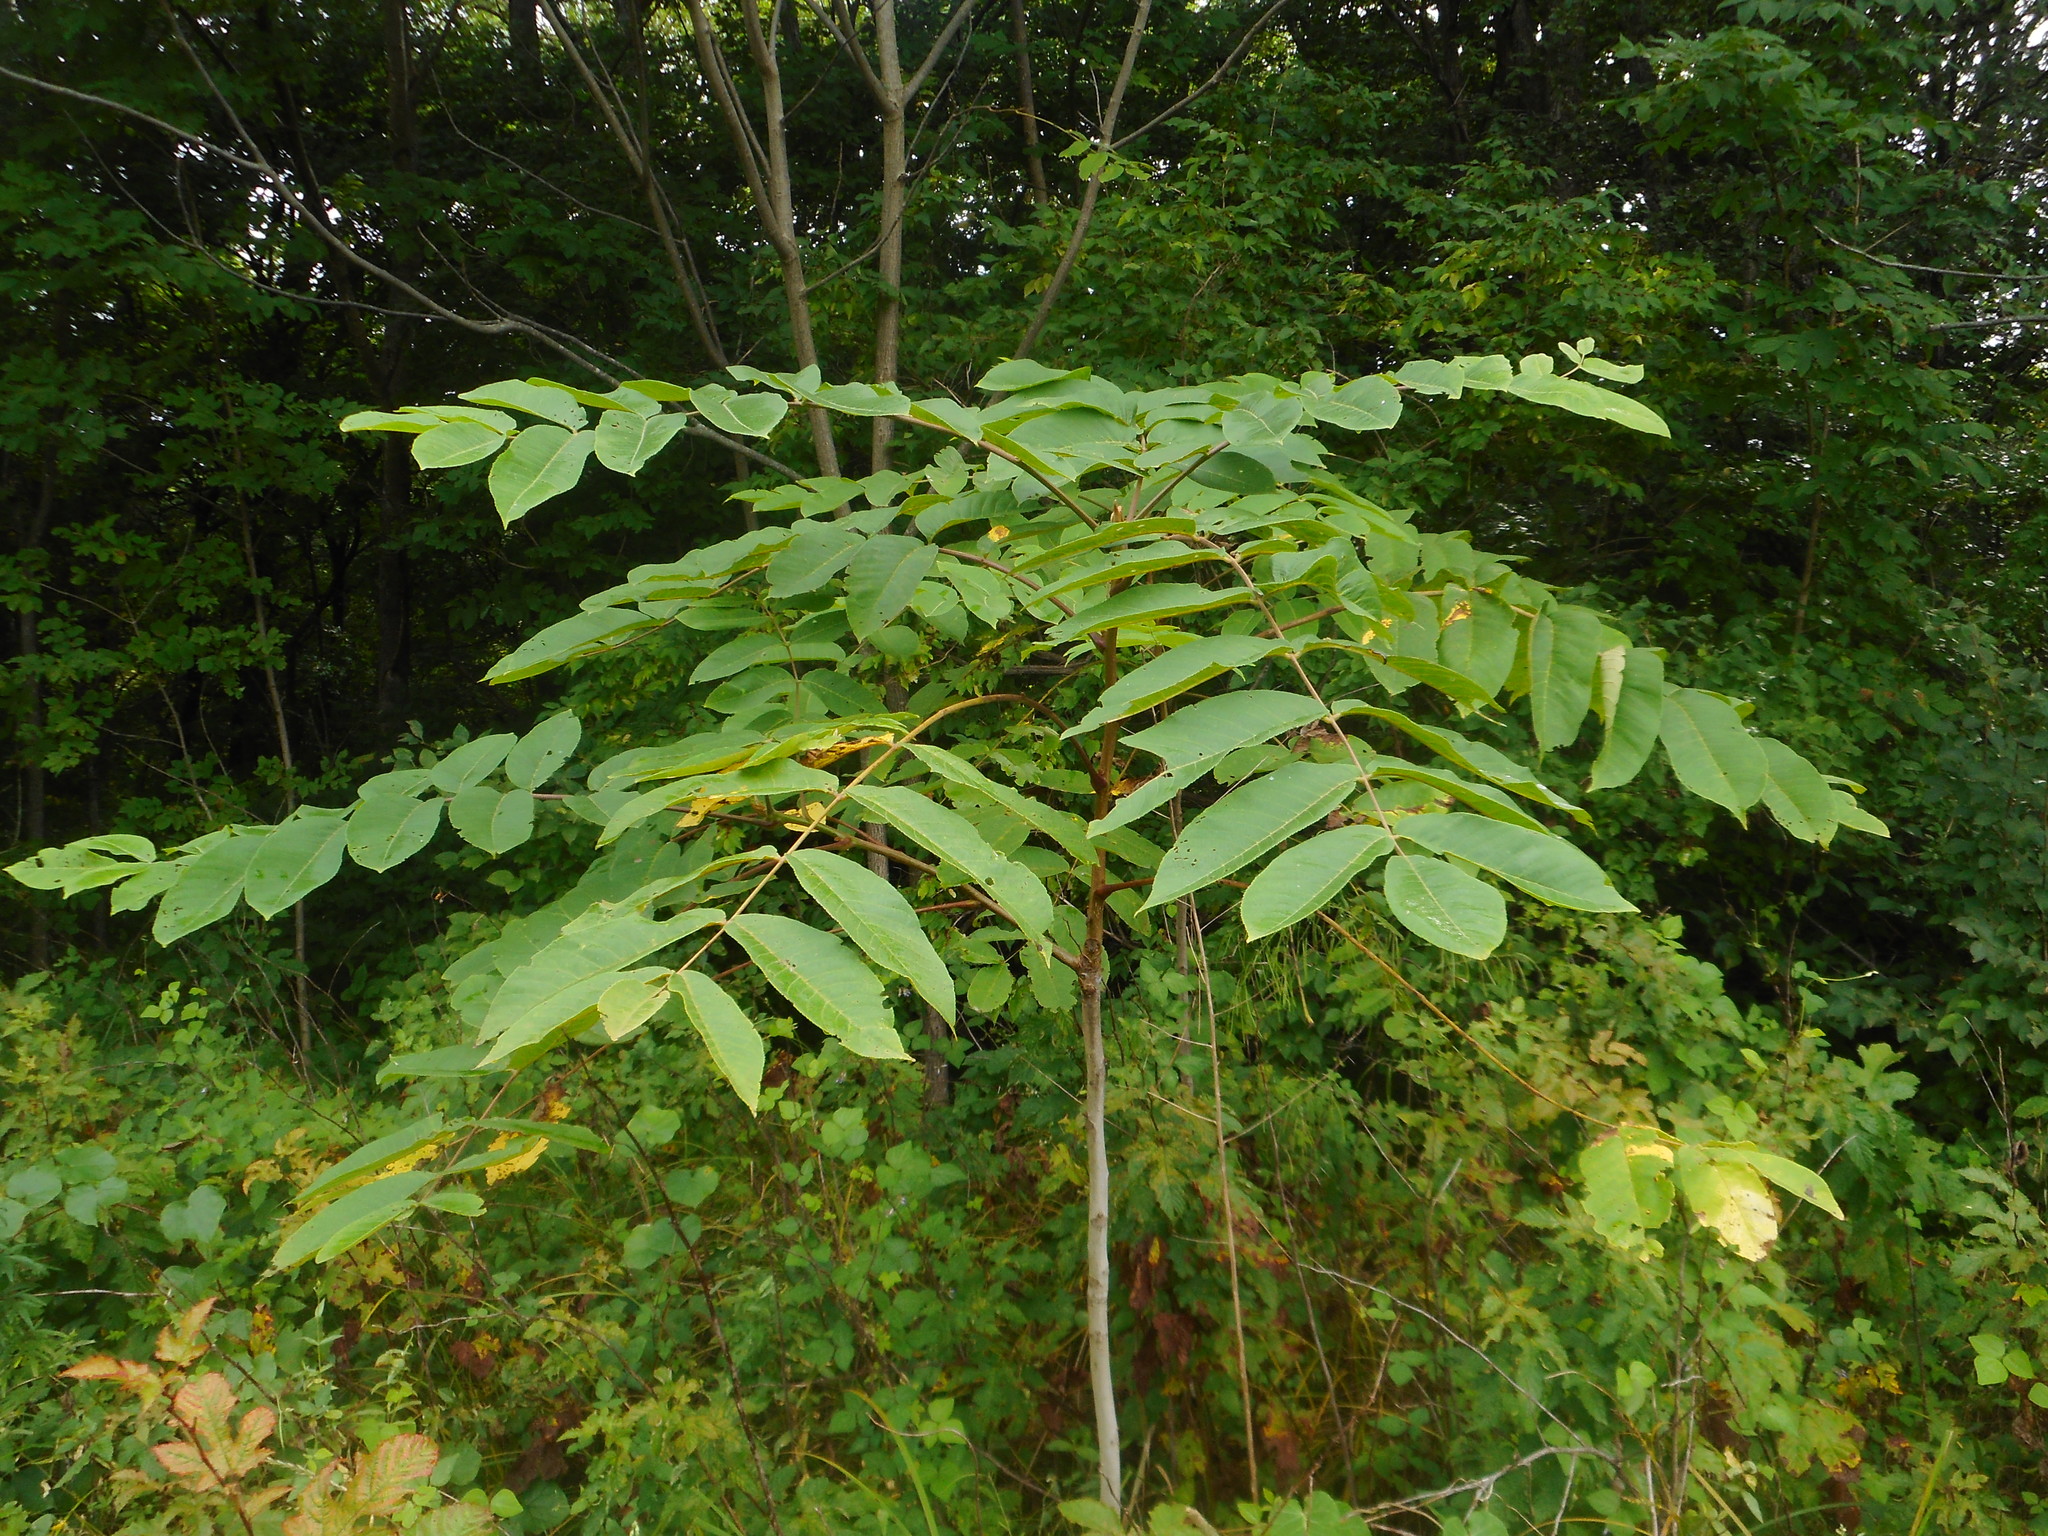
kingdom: Plantae
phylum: Tracheophyta
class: Magnoliopsida
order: Fagales
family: Juglandaceae
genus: Juglans
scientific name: Juglans mandshurica
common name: Manchurian walnut
